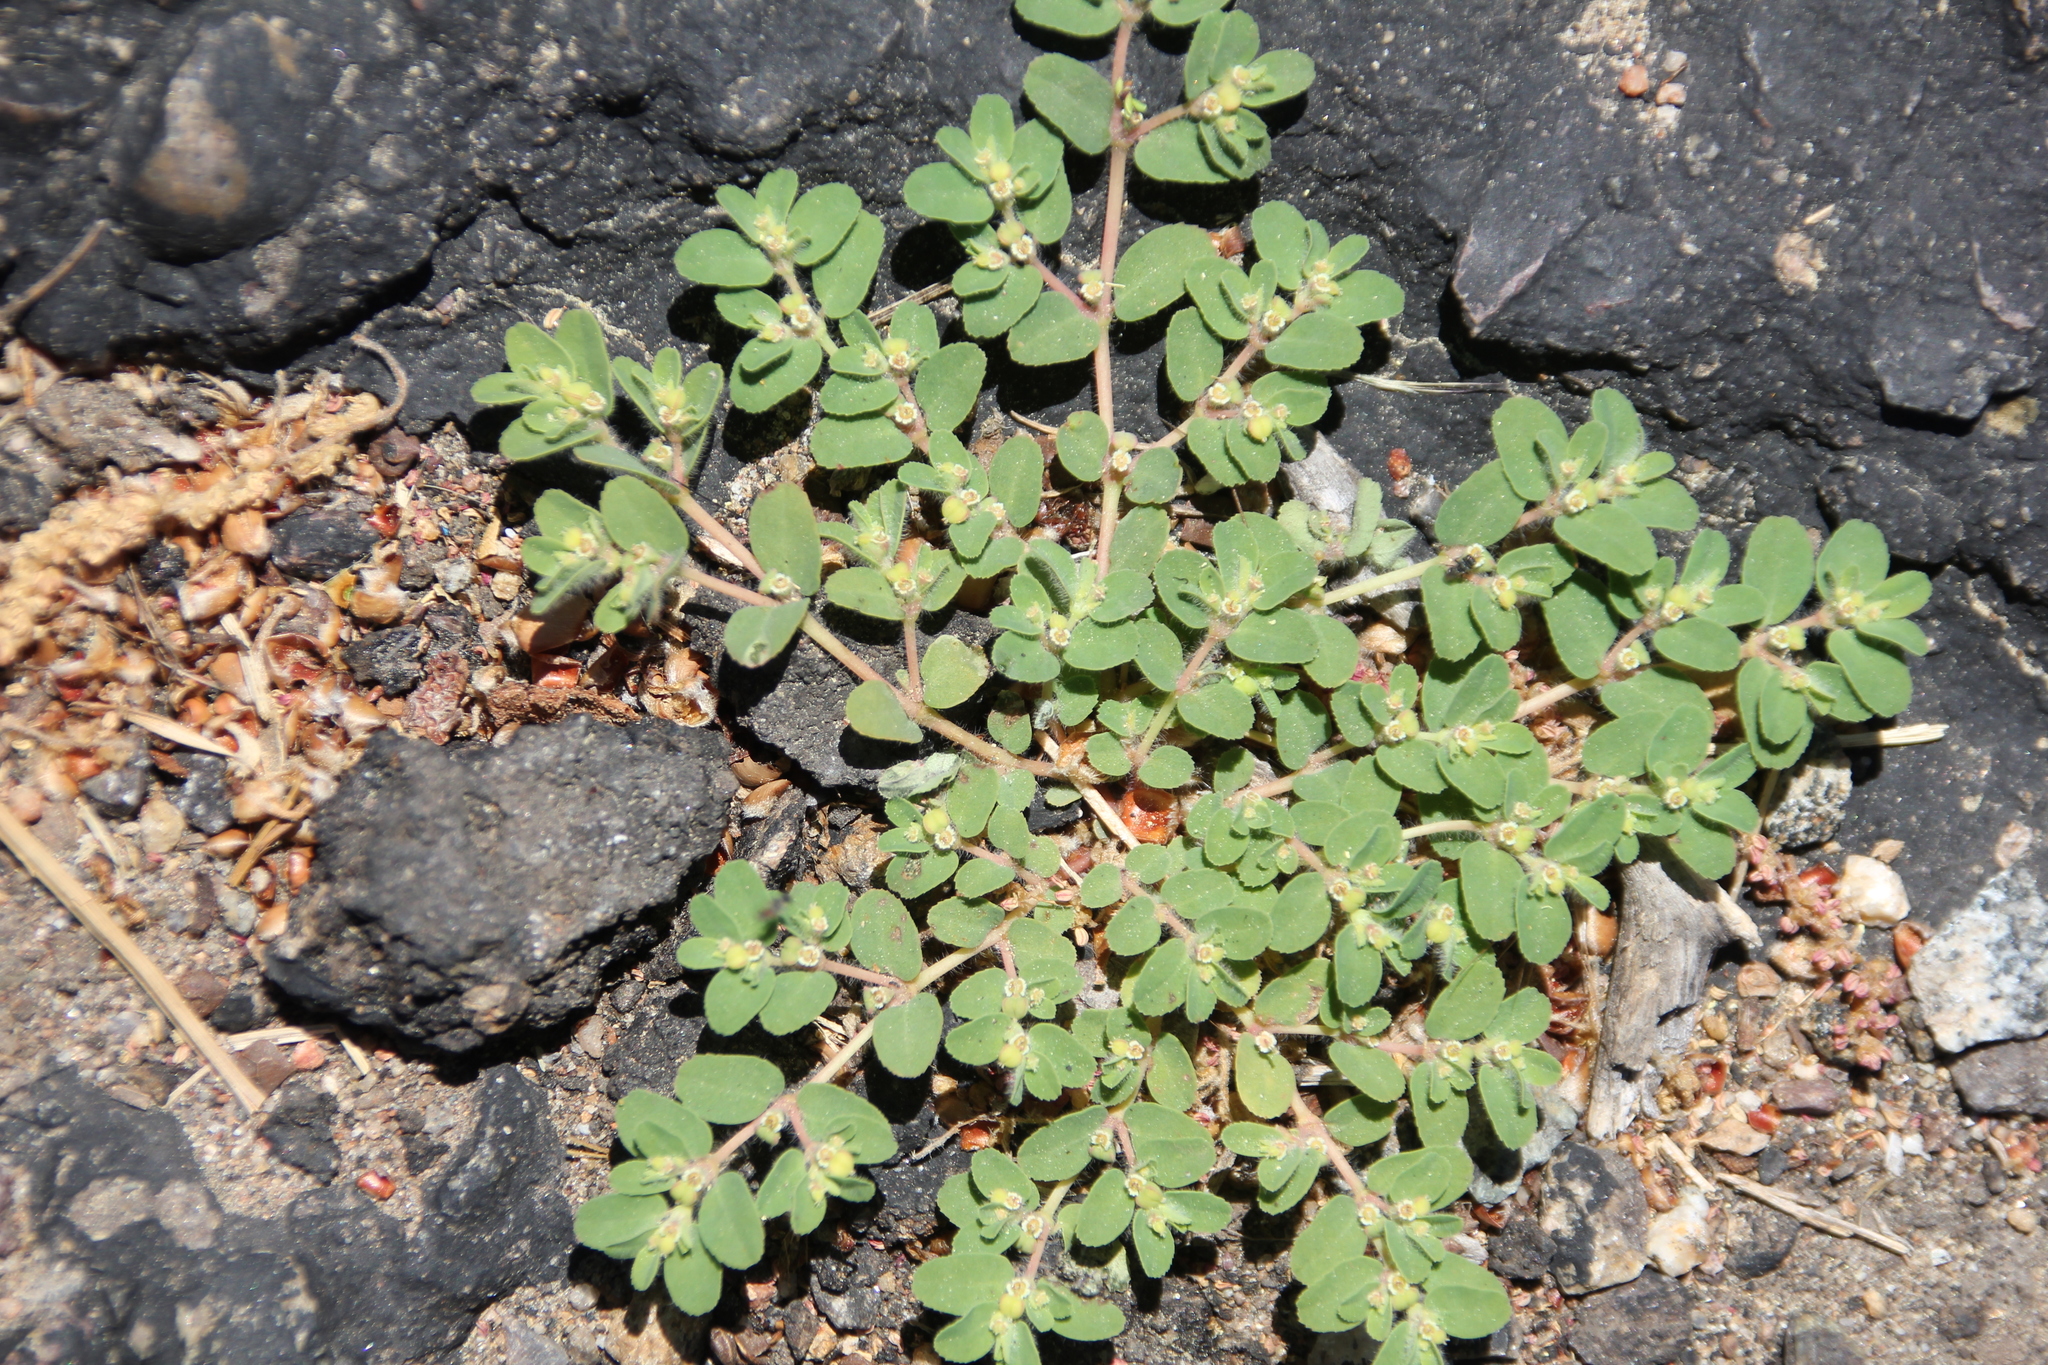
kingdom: Plantae
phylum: Tracheophyta
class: Magnoliopsida
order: Malpighiales
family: Euphorbiaceae
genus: Euphorbia
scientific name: Euphorbia serpillifolia
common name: Thyme-leaf spurge
